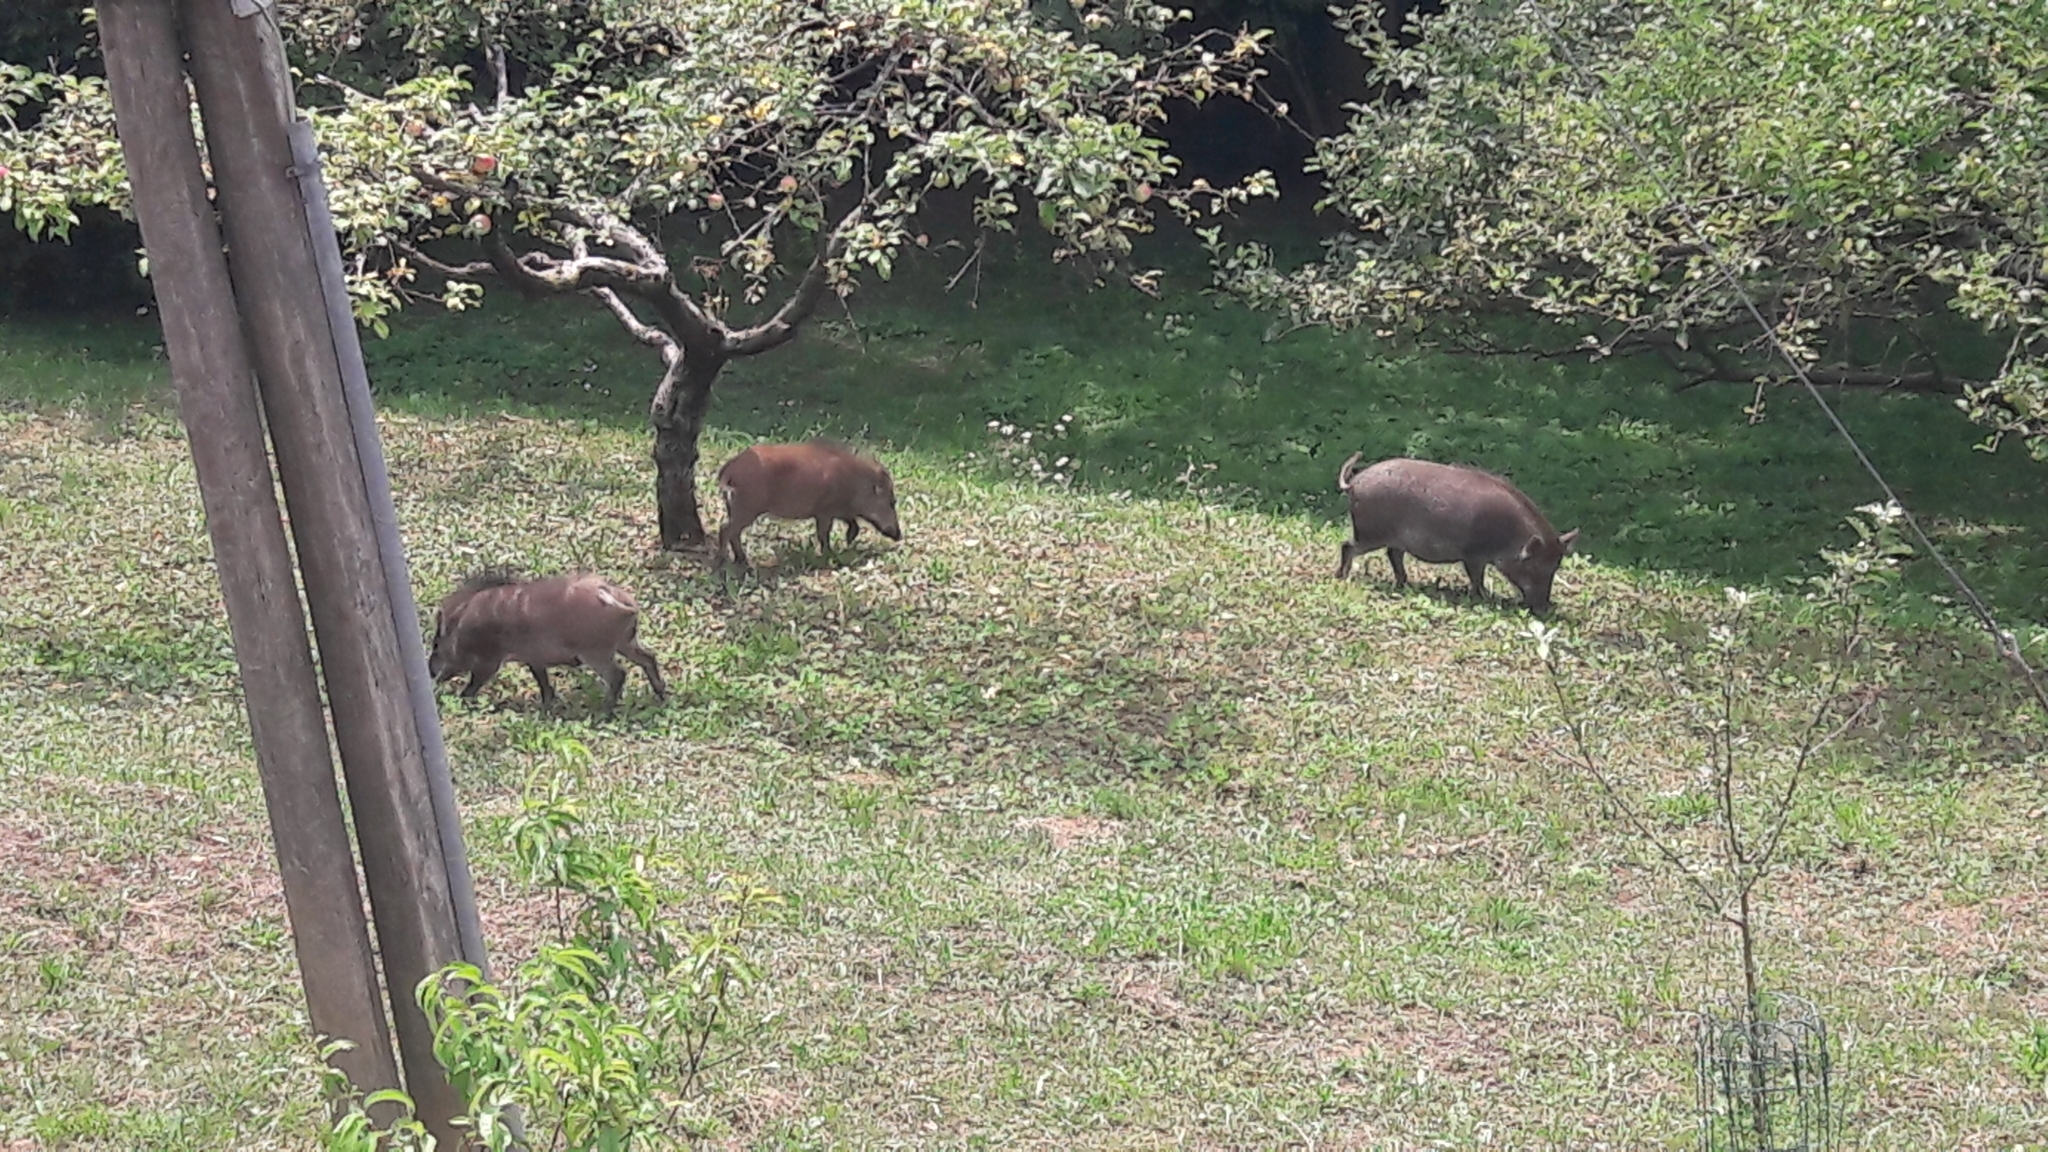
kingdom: Animalia
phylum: Chordata
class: Mammalia
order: Artiodactyla
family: Suidae
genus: Sus
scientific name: Sus scrofa
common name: Wild boar
